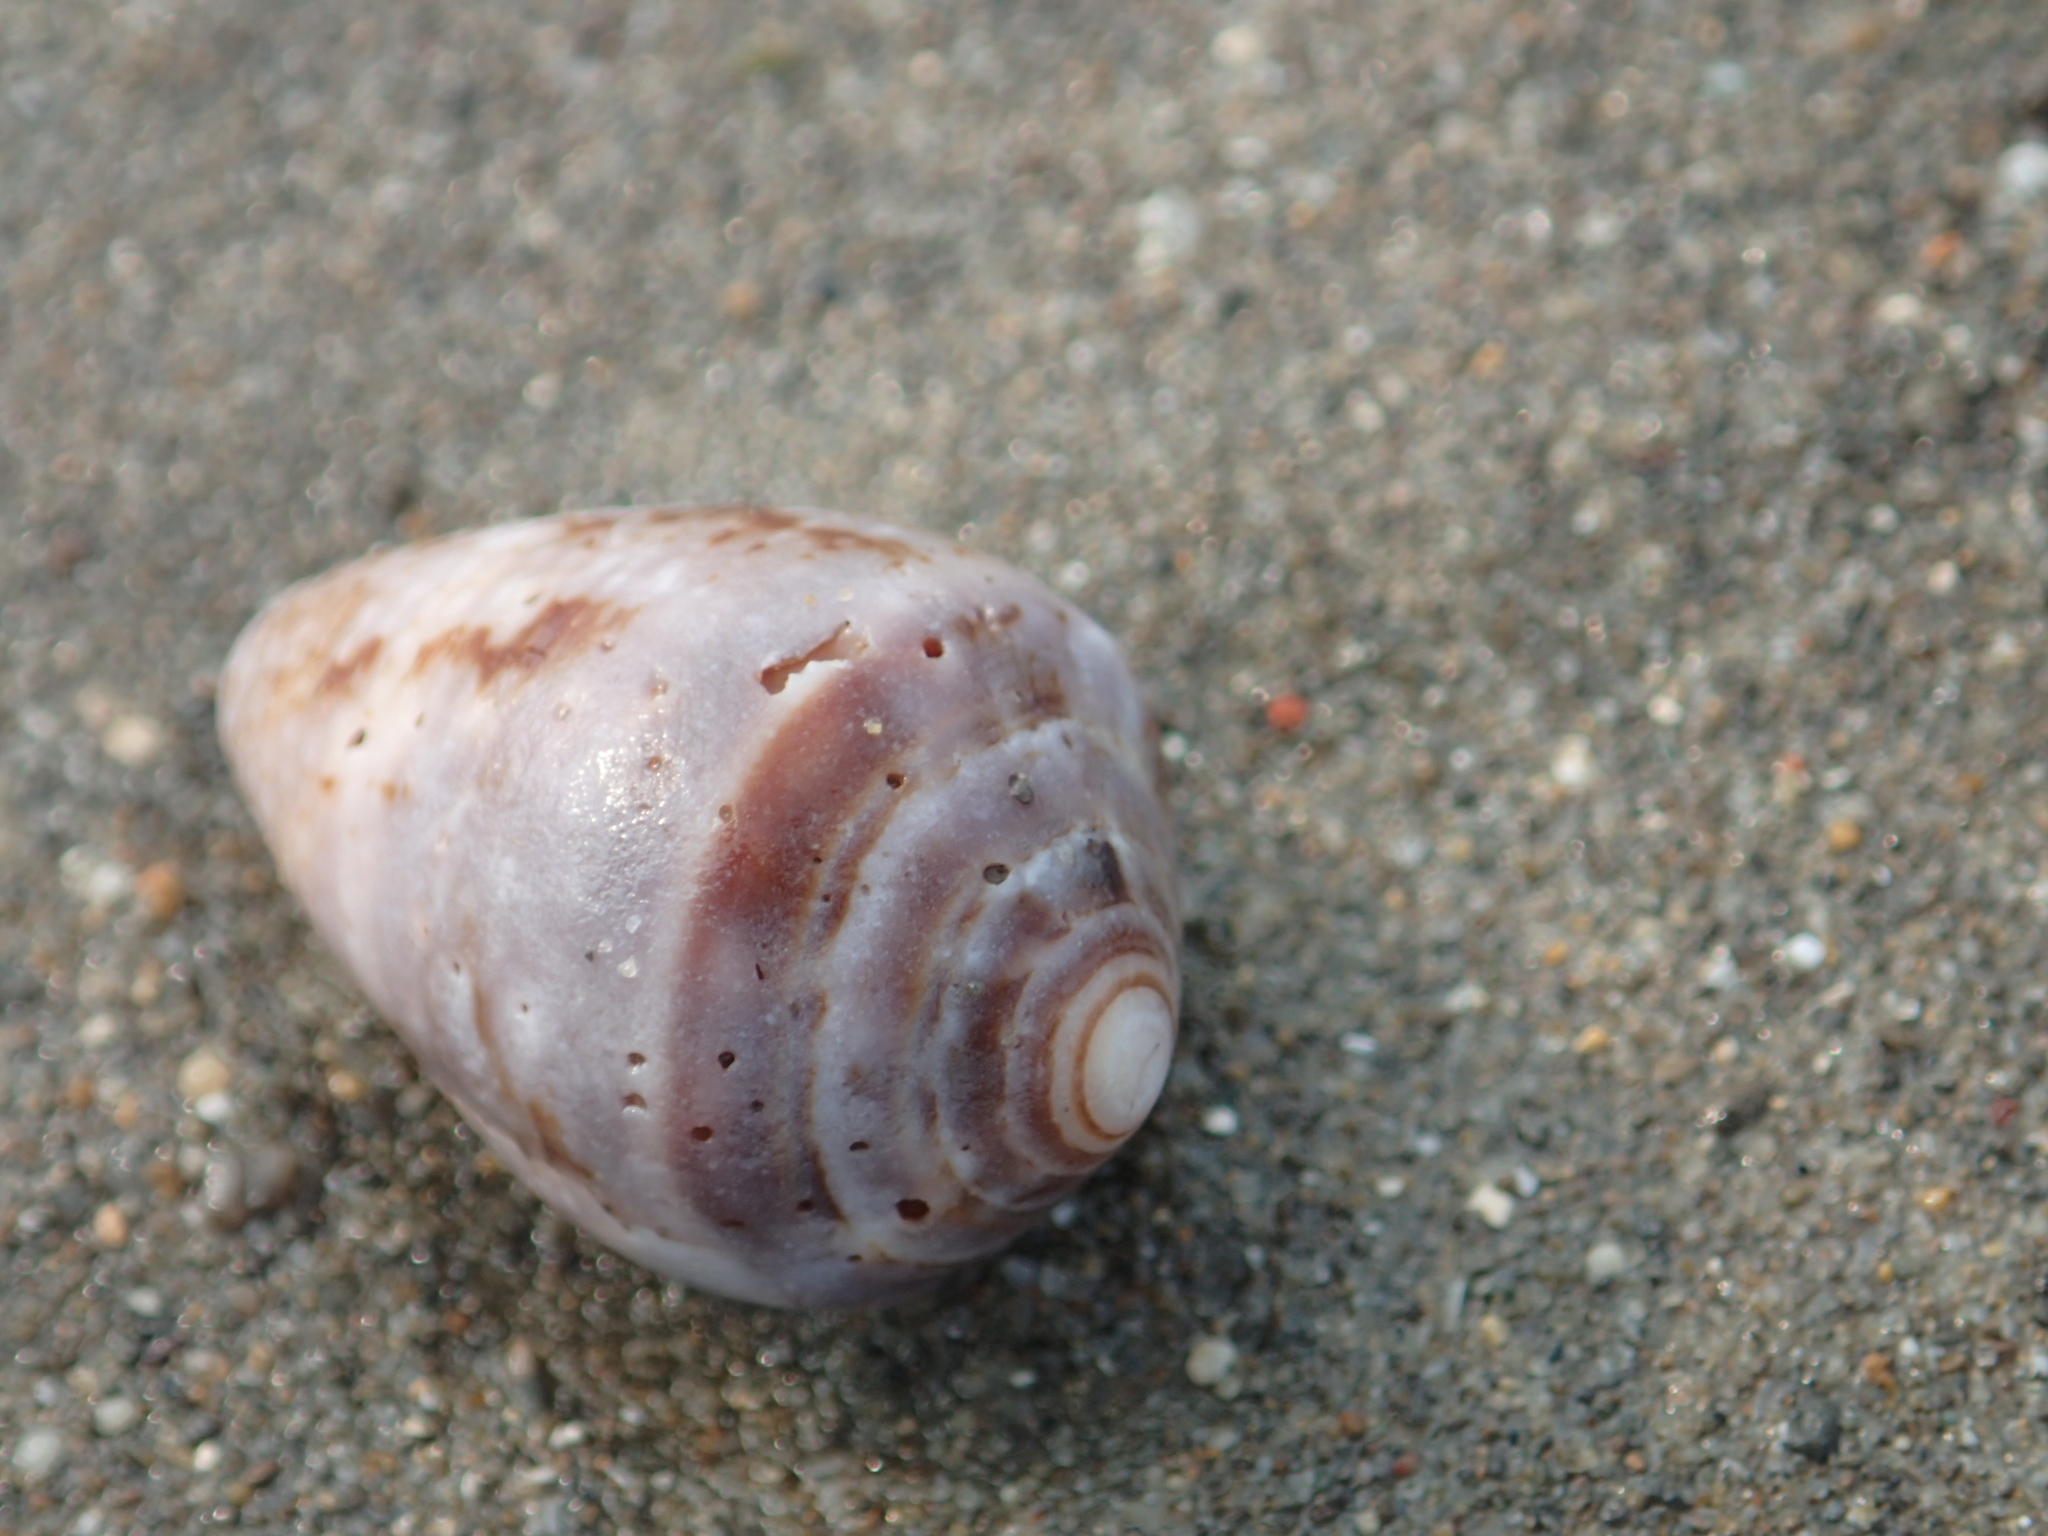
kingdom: Animalia
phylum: Mollusca
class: Gastropoda
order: Neogastropoda
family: Conidae
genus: Conus
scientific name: Conus coronatus
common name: Coronated cone
